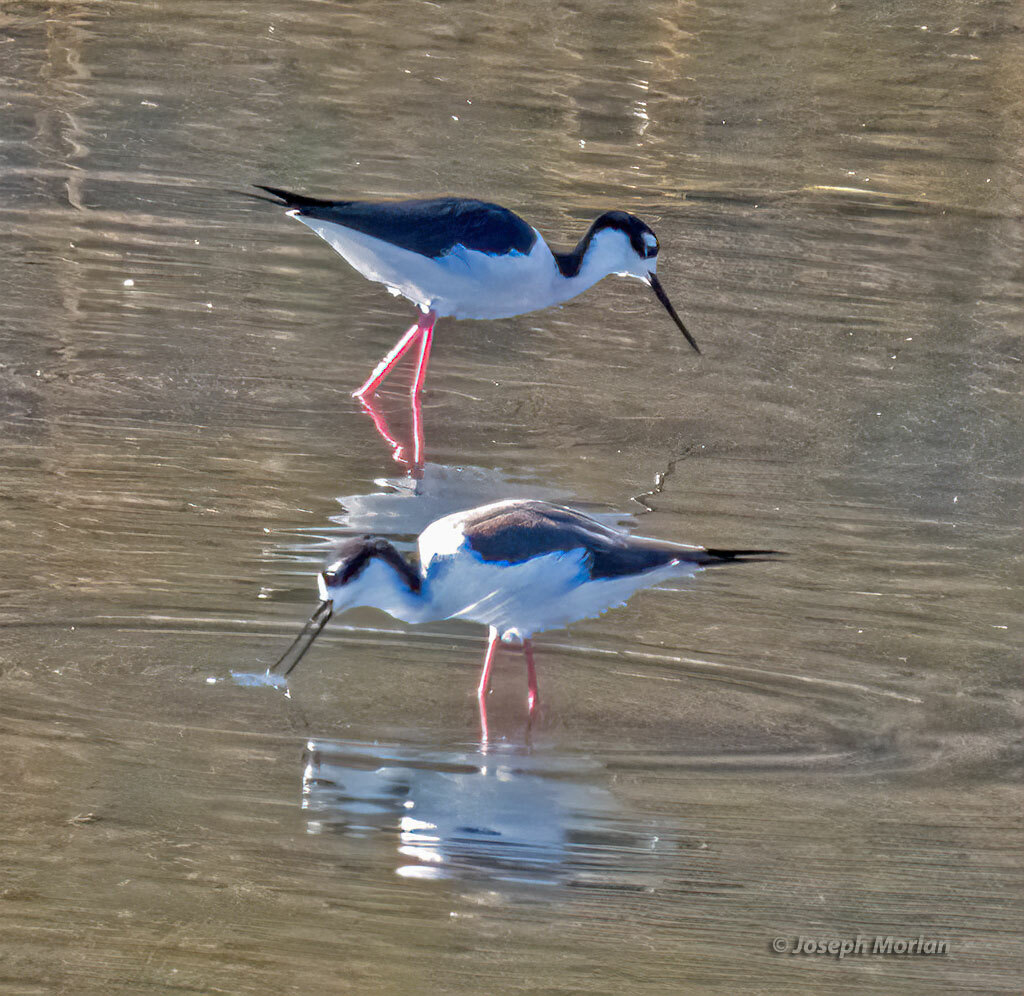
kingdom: Animalia
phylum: Chordata
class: Aves
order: Charadriiformes
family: Recurvirostridae
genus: Himantopus
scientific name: Himantopus mexicanus
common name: Black-necked stilt
